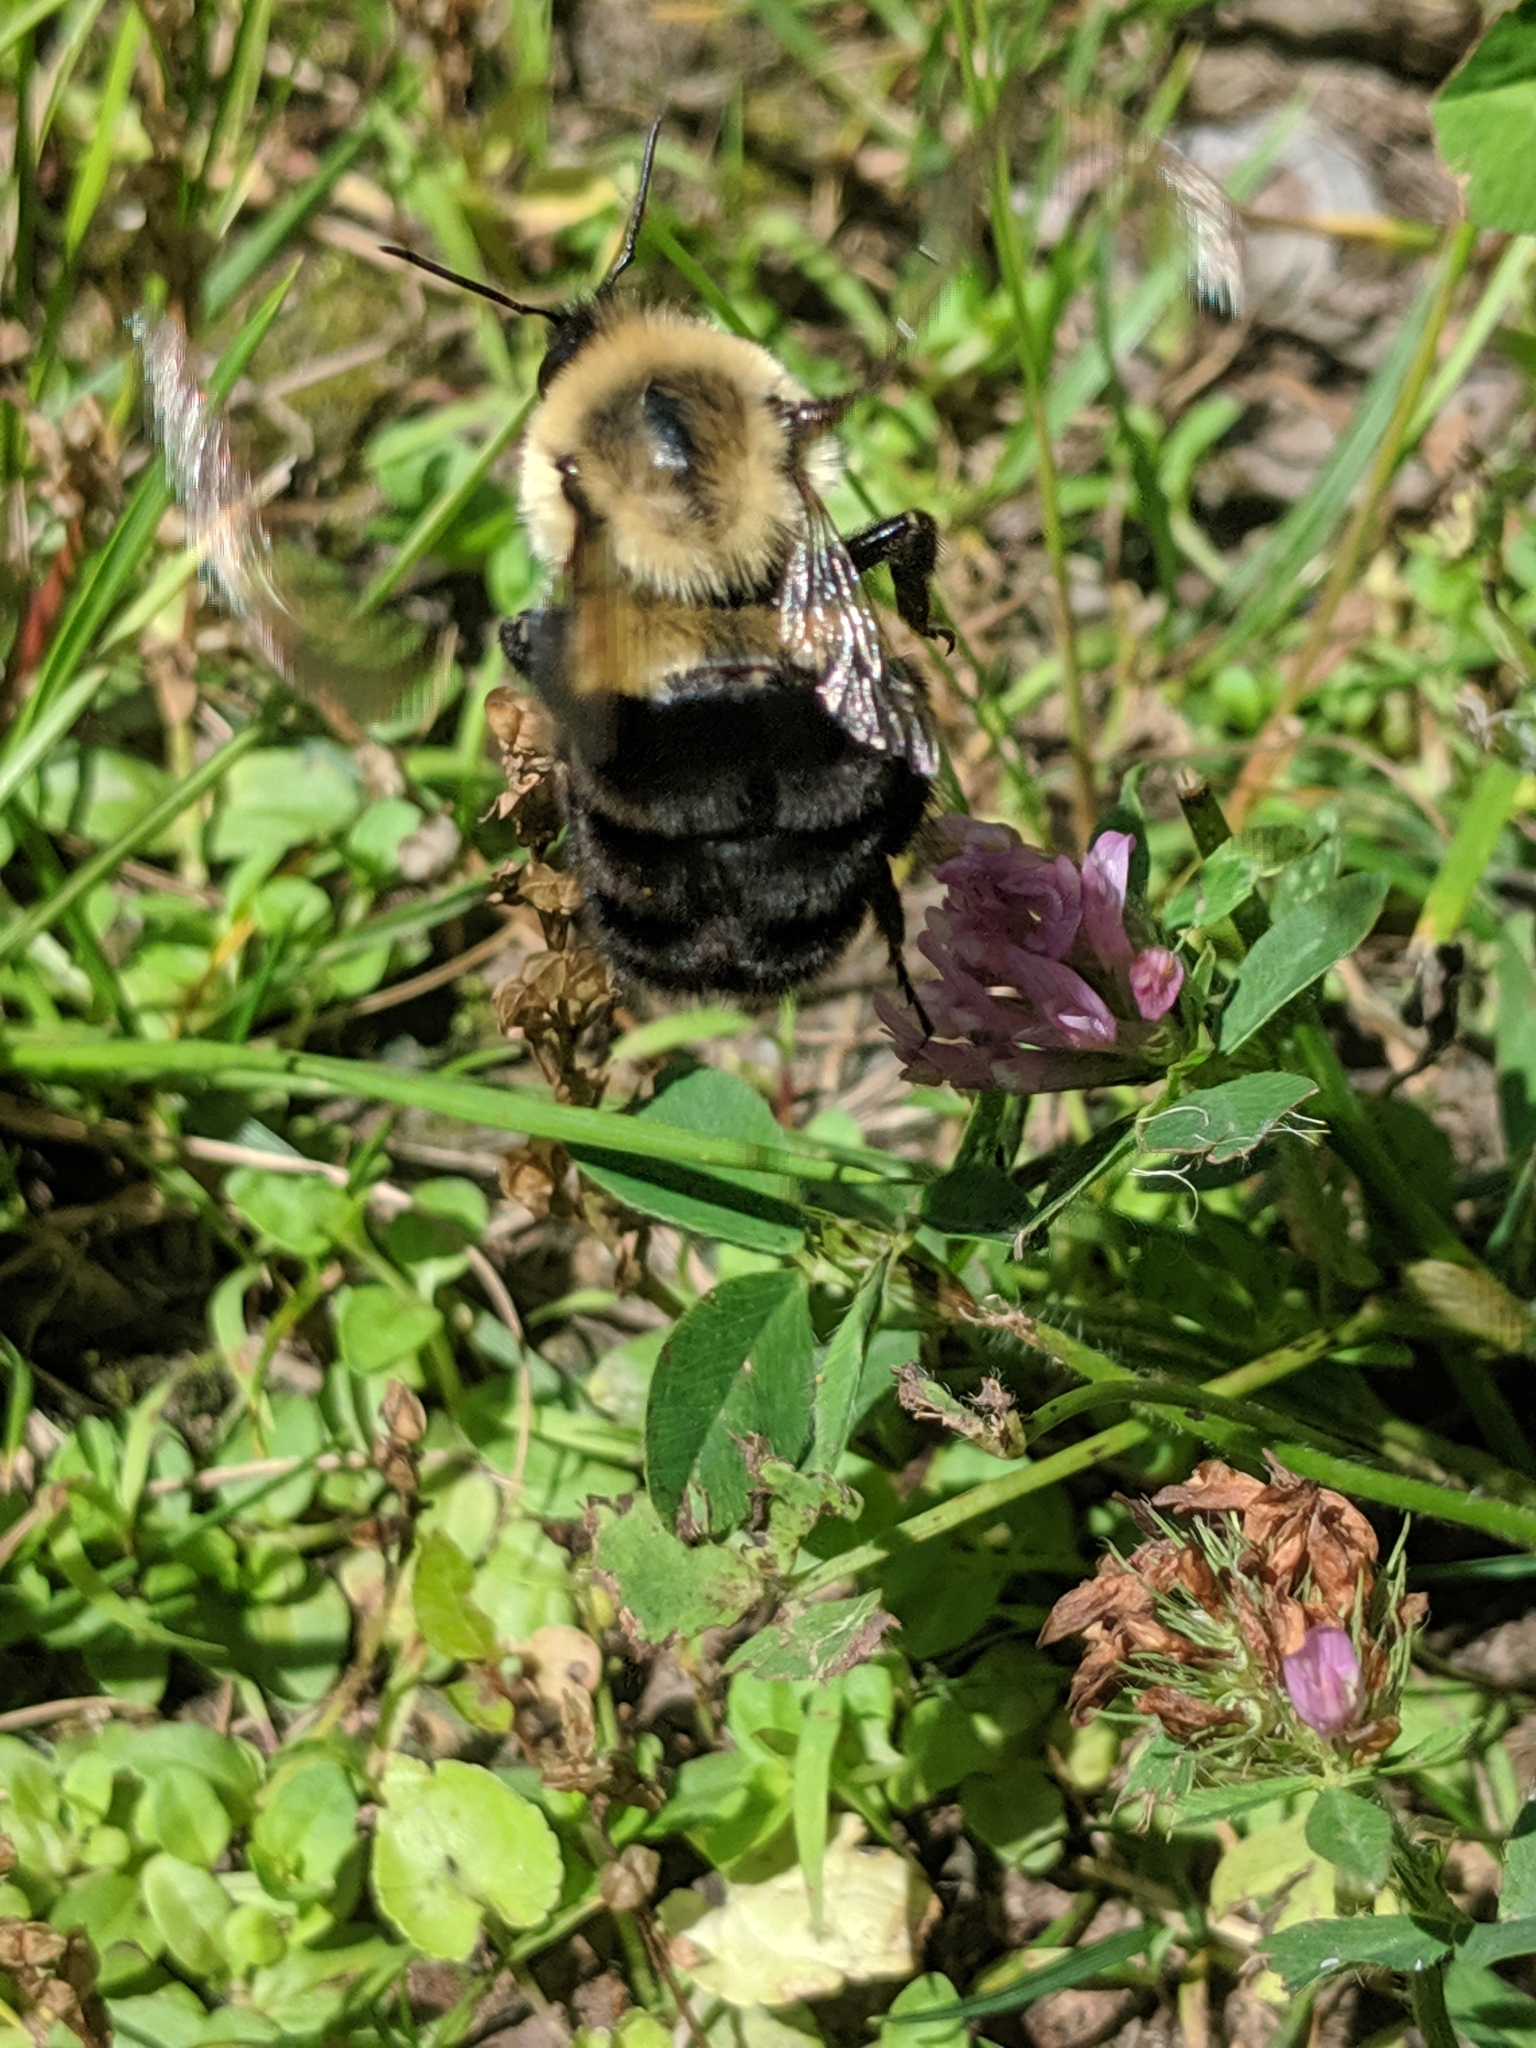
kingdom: Animalia
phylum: Arthropoda
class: Insecta
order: Hymenoptera
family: Apidae
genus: Bombus
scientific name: Bombus impatiens
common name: Common eastern bumble bee
